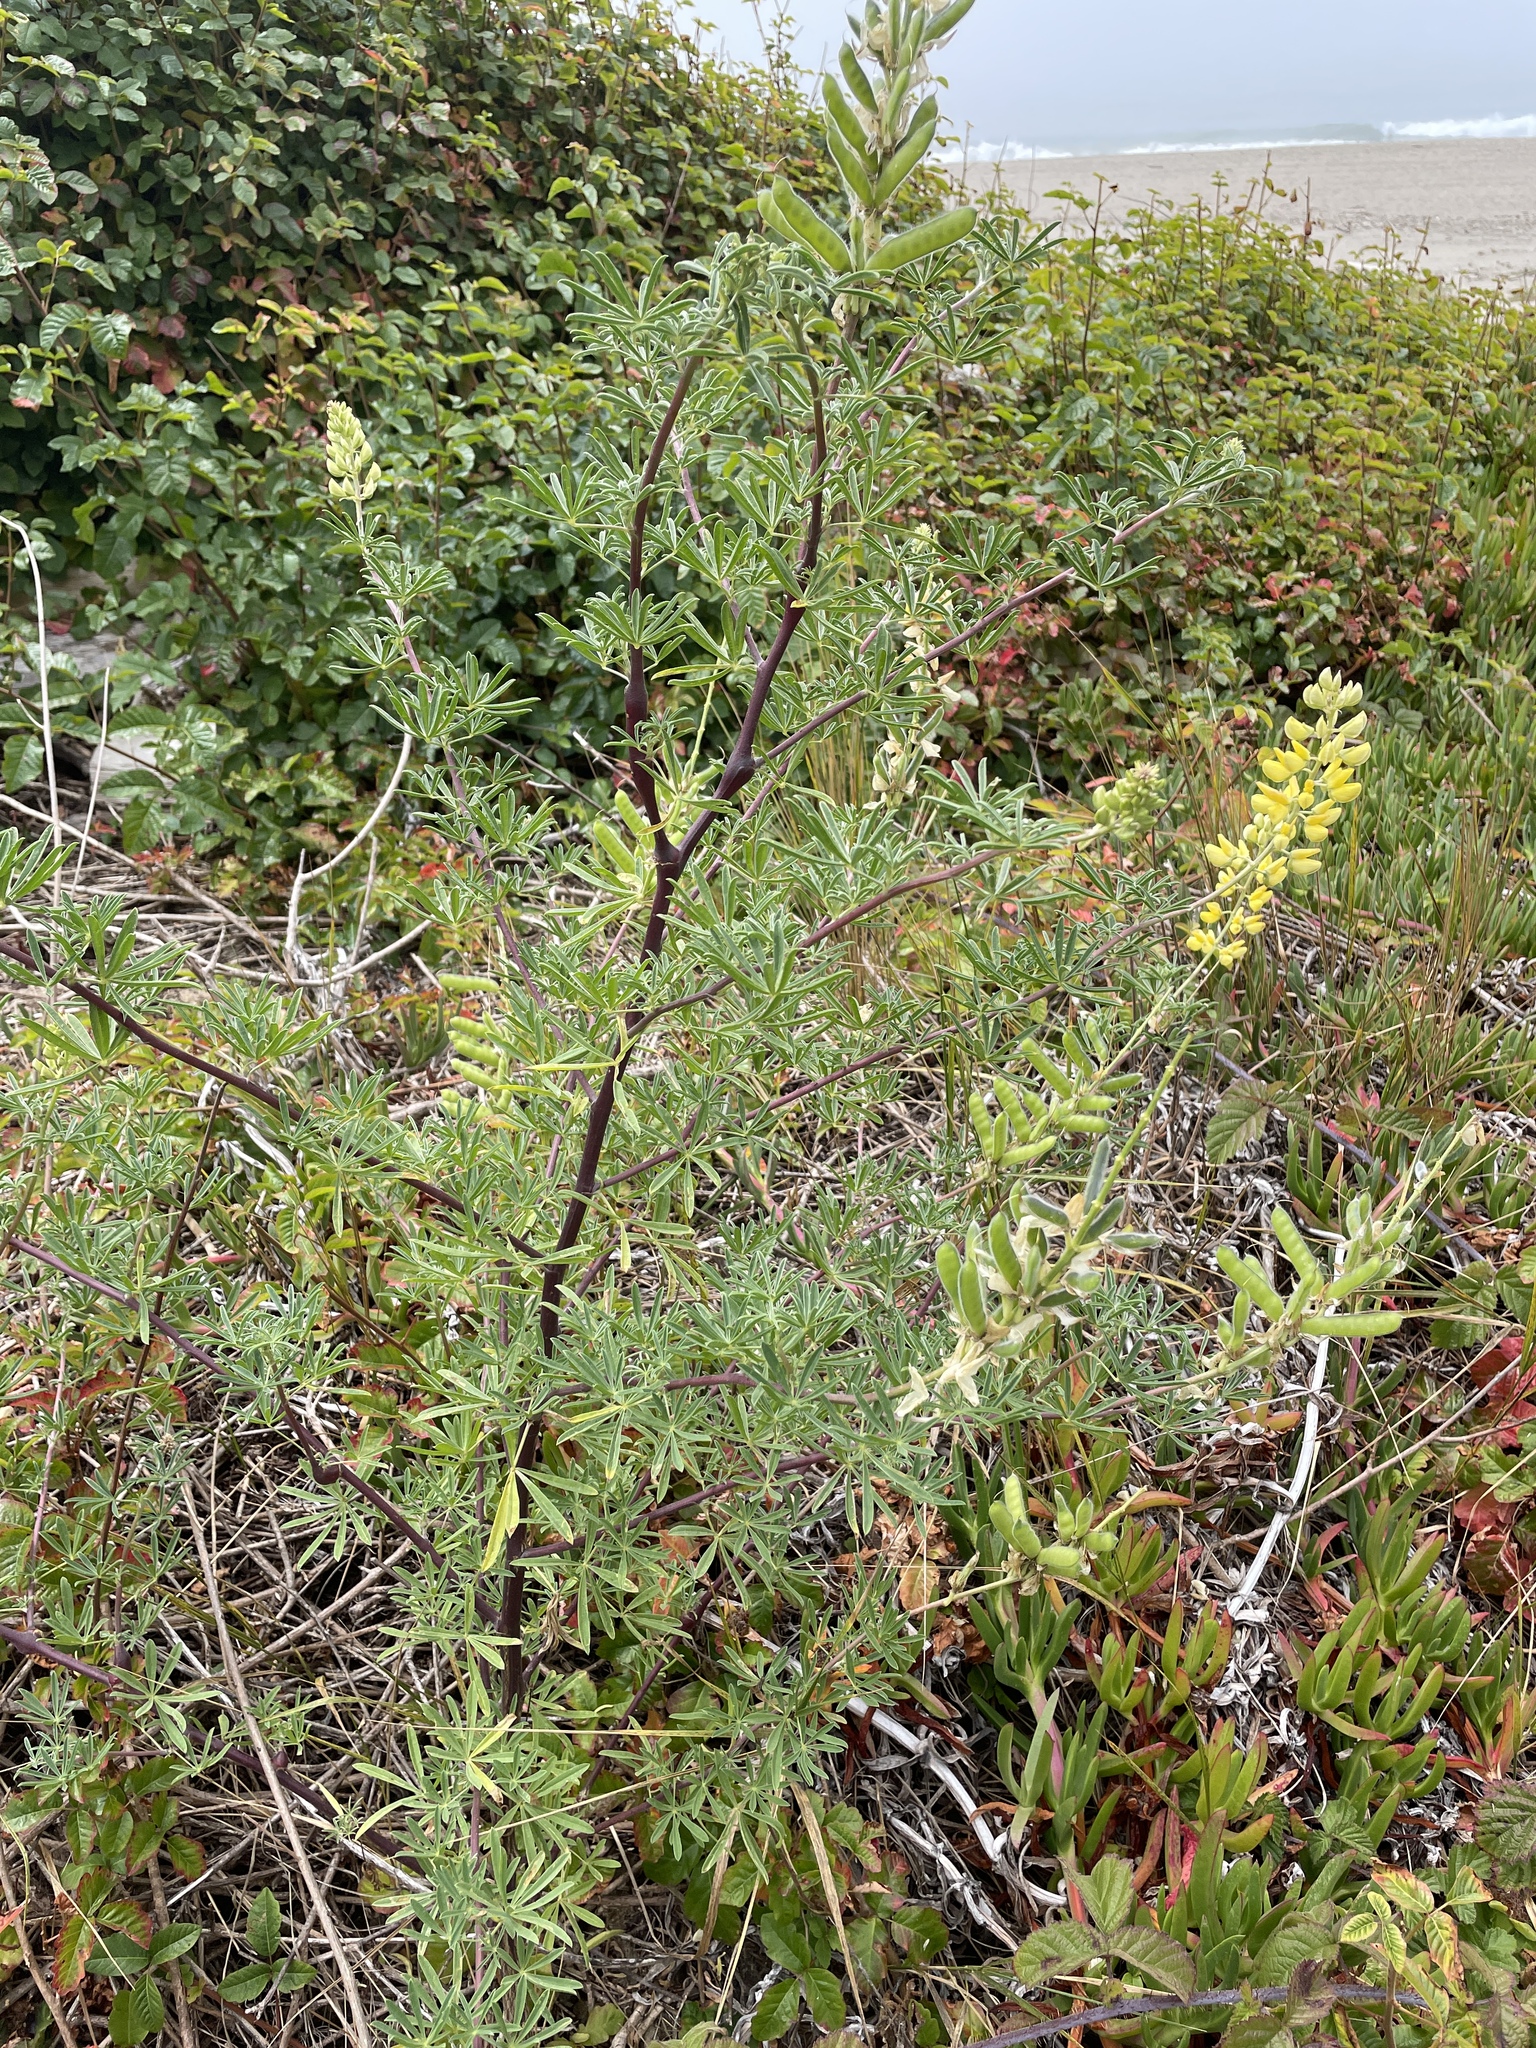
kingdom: Plantae
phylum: Tracheophyta
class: Magnoliopsida
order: Fabales
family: Fabaceae
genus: Lupinus
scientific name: Lupinus arboreus
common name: Yellow bush lupine
